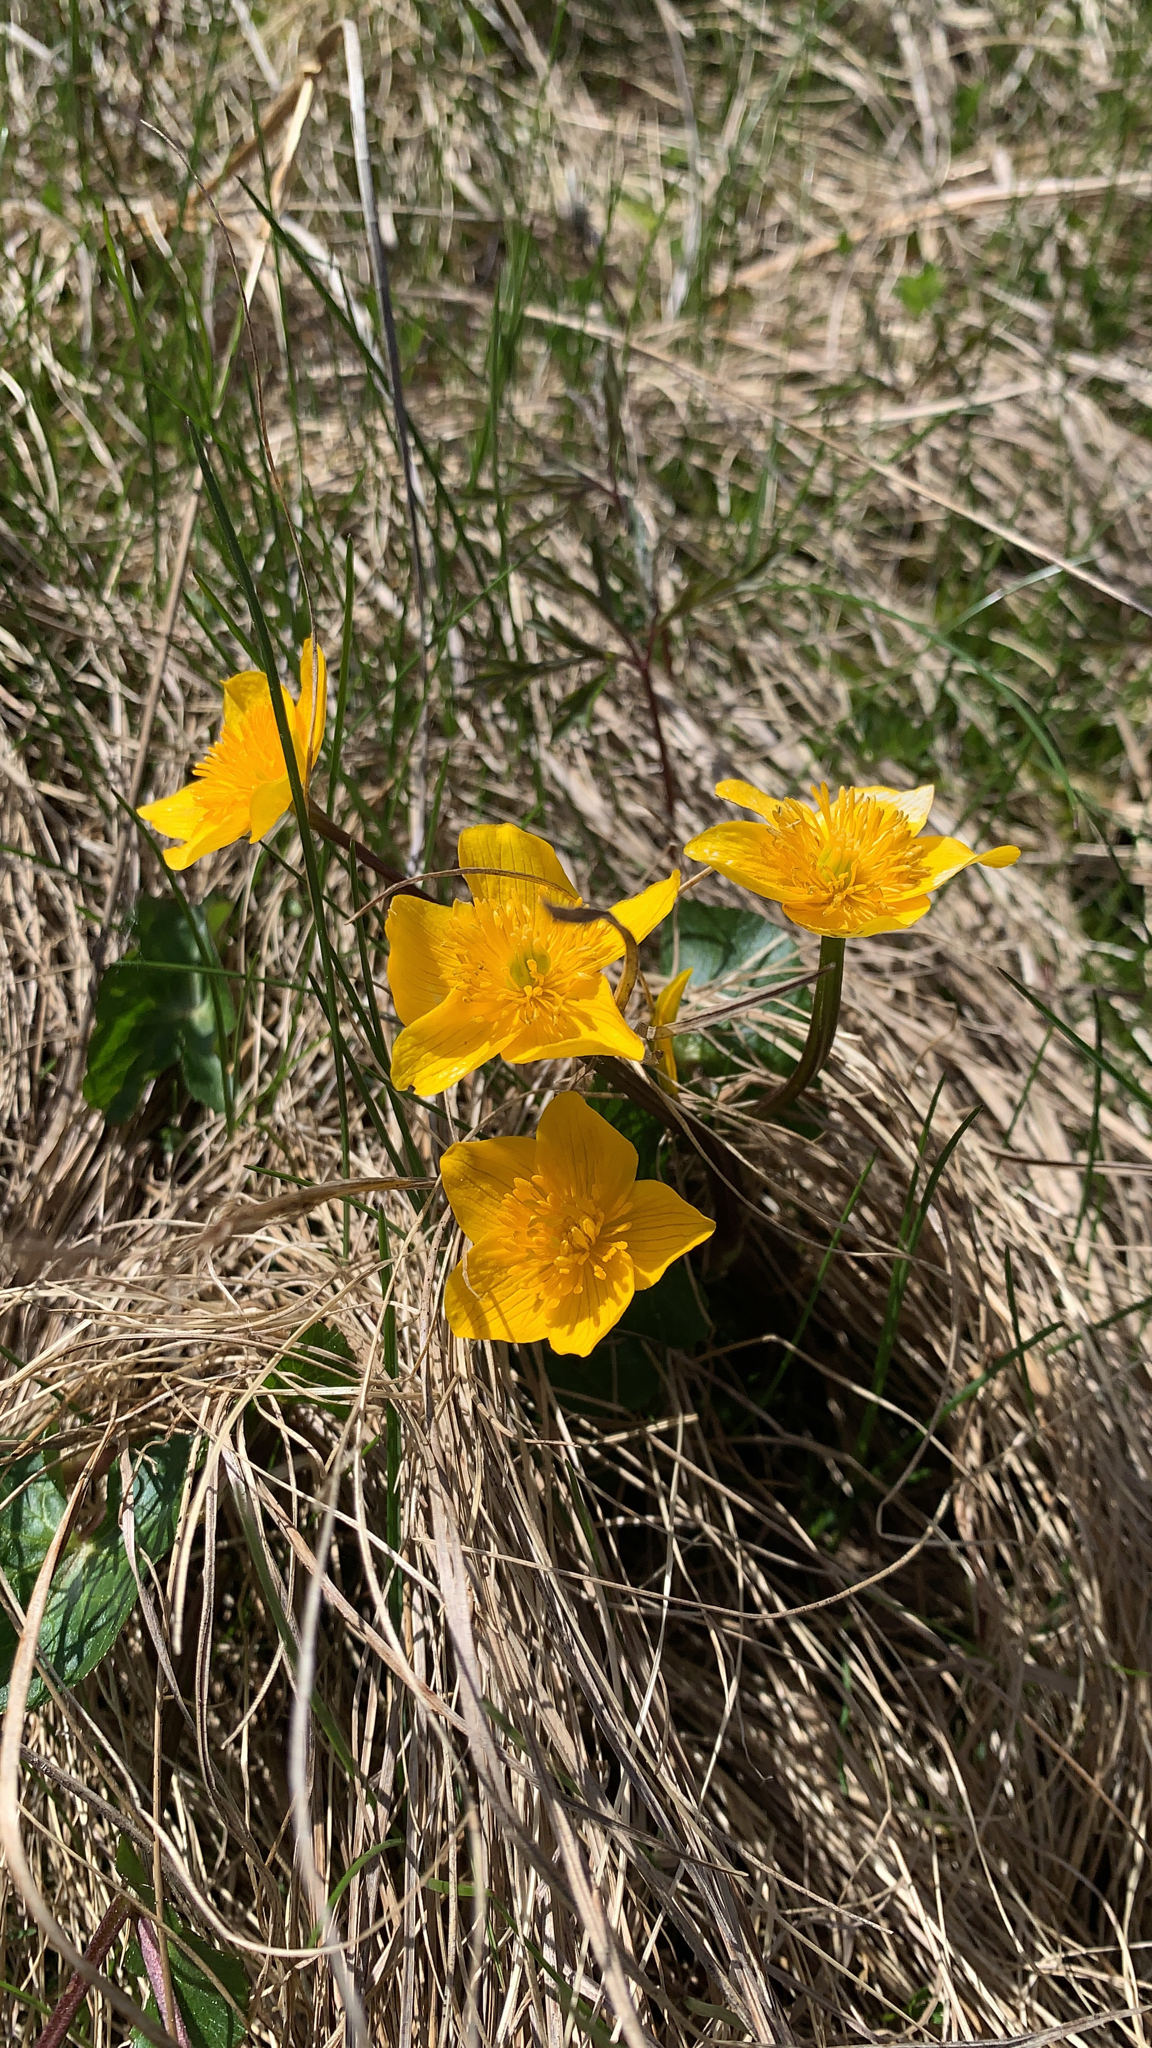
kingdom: Plantae
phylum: Tracheophyta
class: Magnoliopsida
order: Ranunculales
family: Ranunculaceae
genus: Caltha
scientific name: Caltha palustris
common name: Marsh marigold
